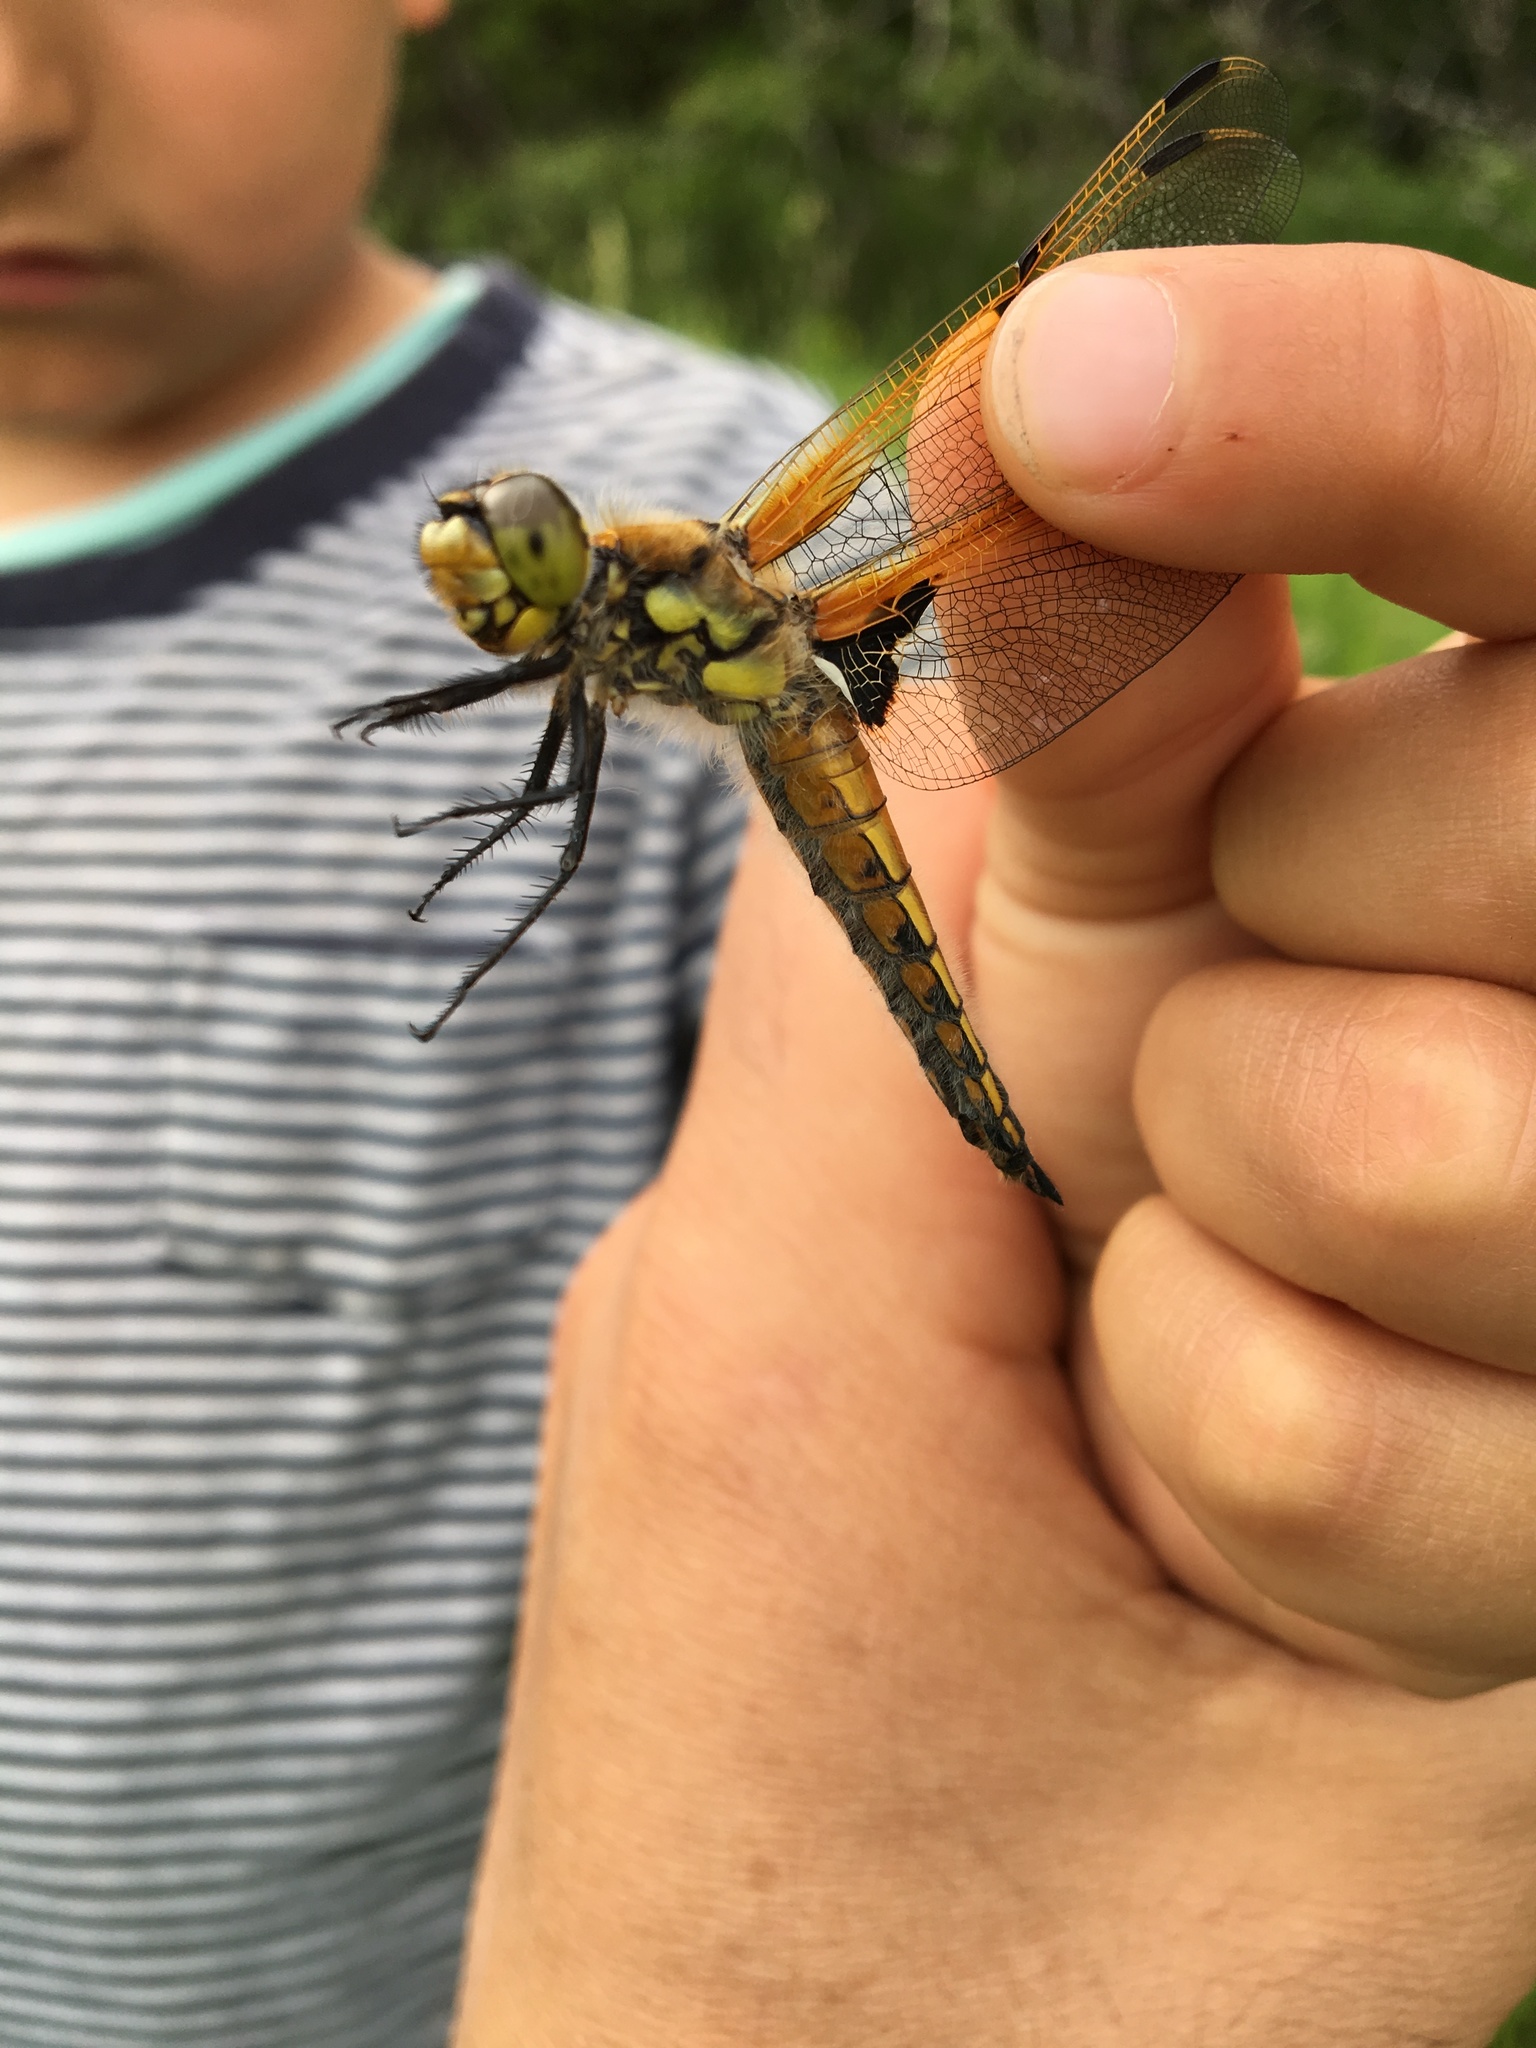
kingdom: Animalia
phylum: Arthropoda
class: Insecta
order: Odonata
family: Libellulidae
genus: Libellula
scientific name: Libellula quadrimaculata
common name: Four-spotted chaser
